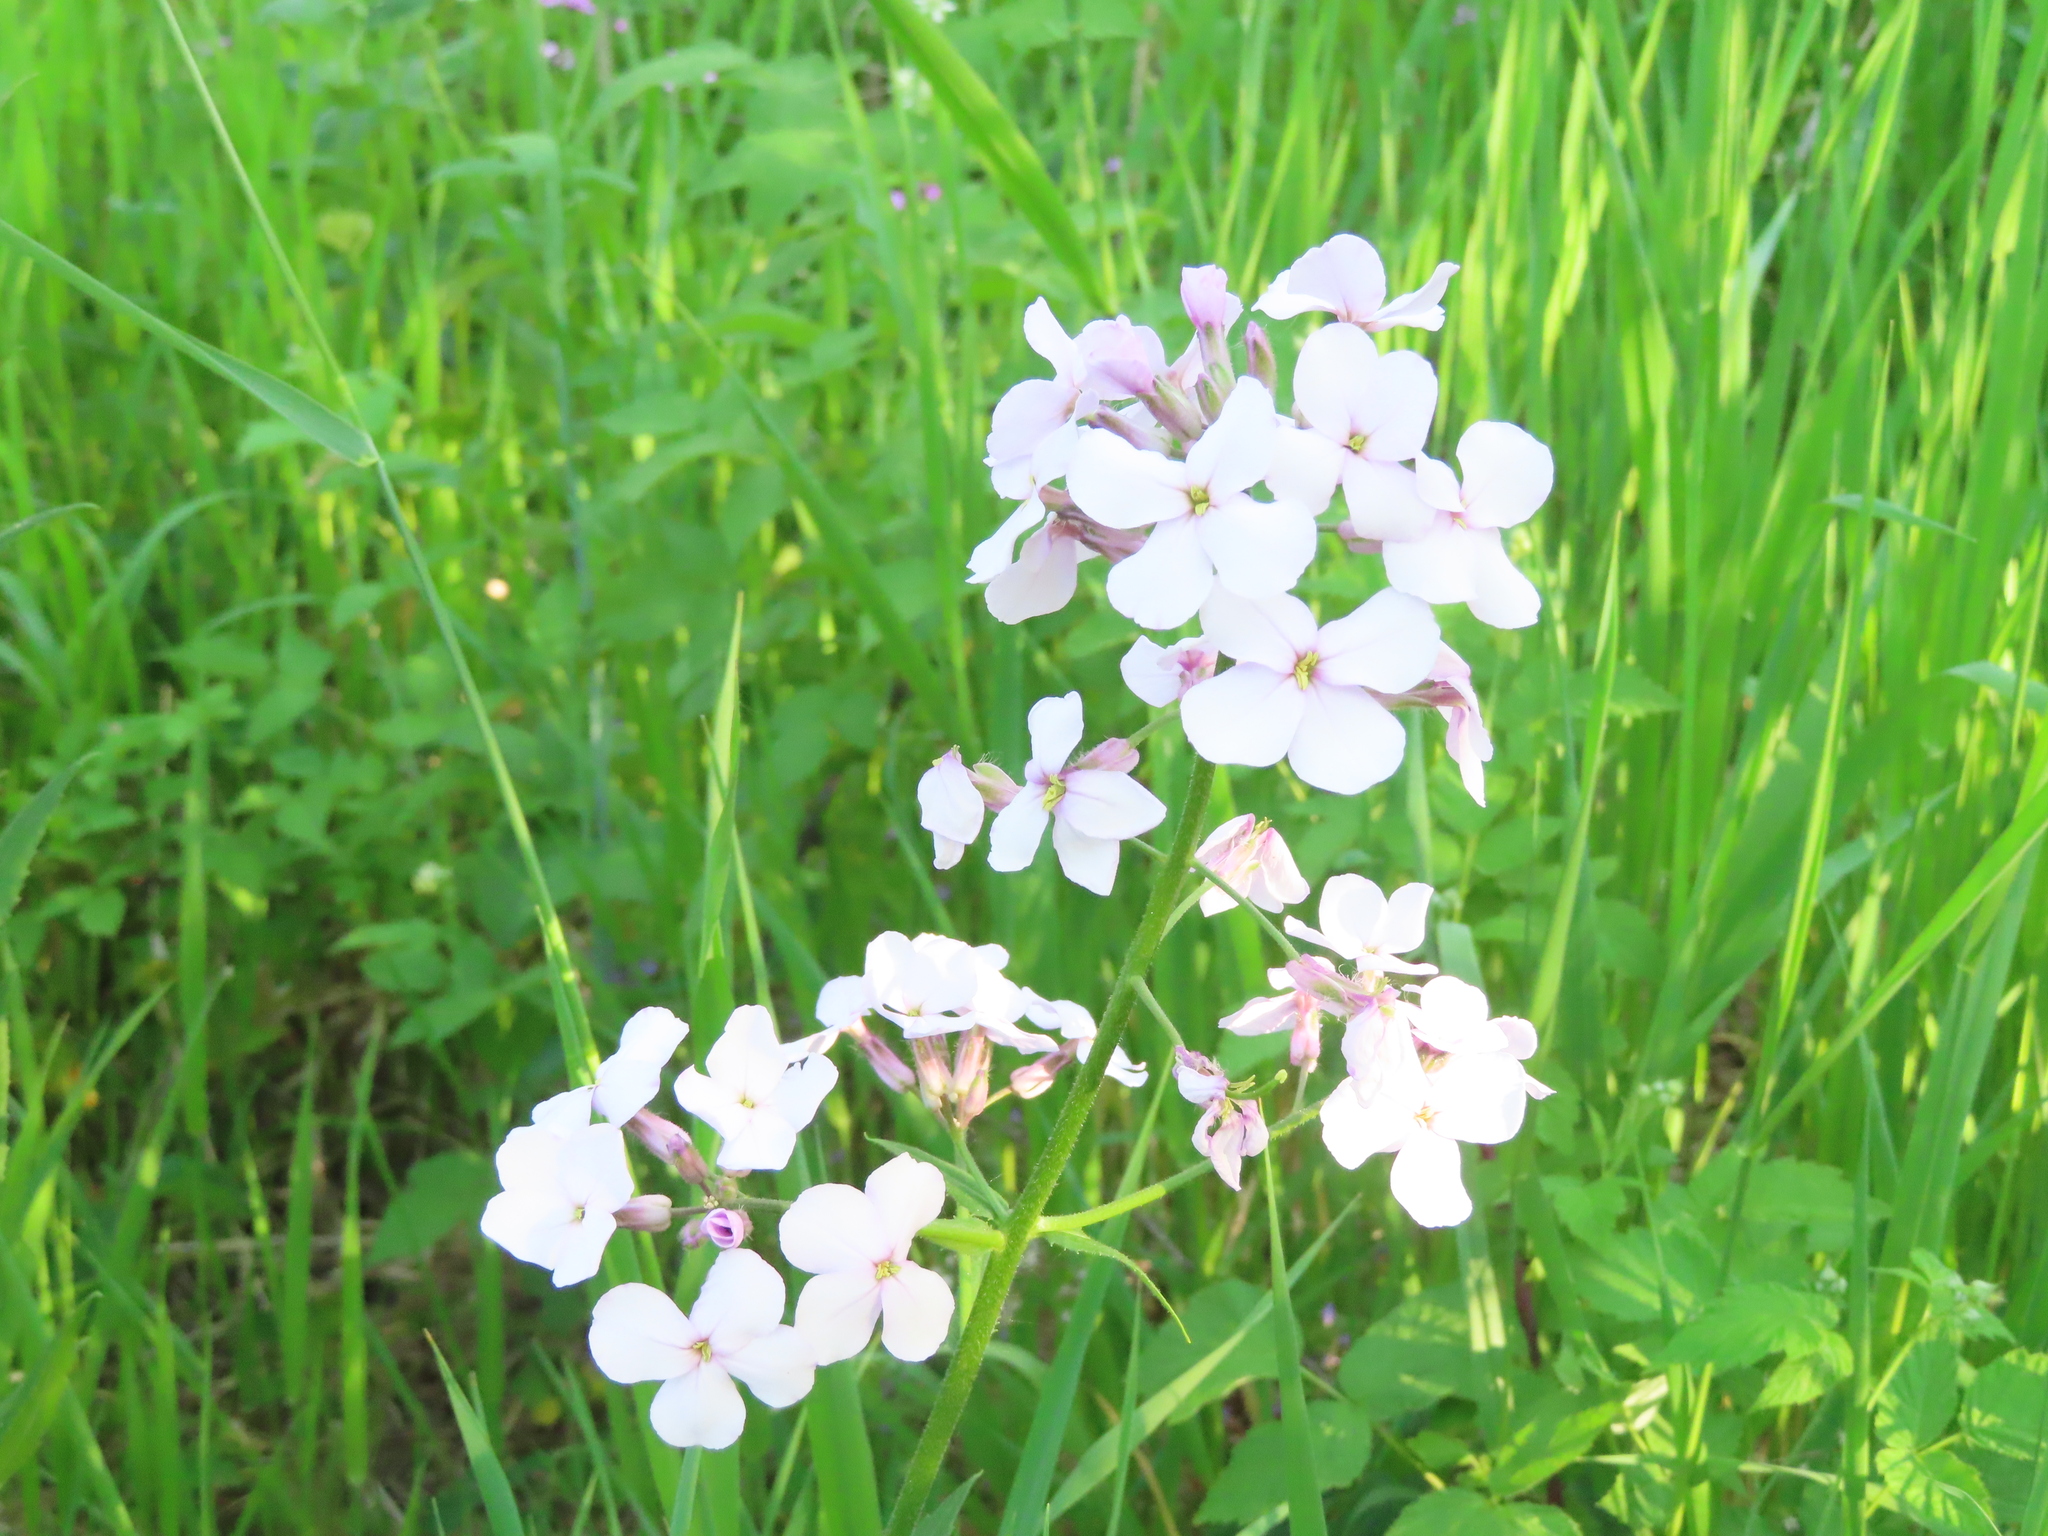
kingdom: Plantae
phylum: Tracheophyta
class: Magnoliopsida
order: Brassicales
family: Brassicaceae
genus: Hesperis
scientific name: Hesperis matronalis
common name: Dame's-violet
